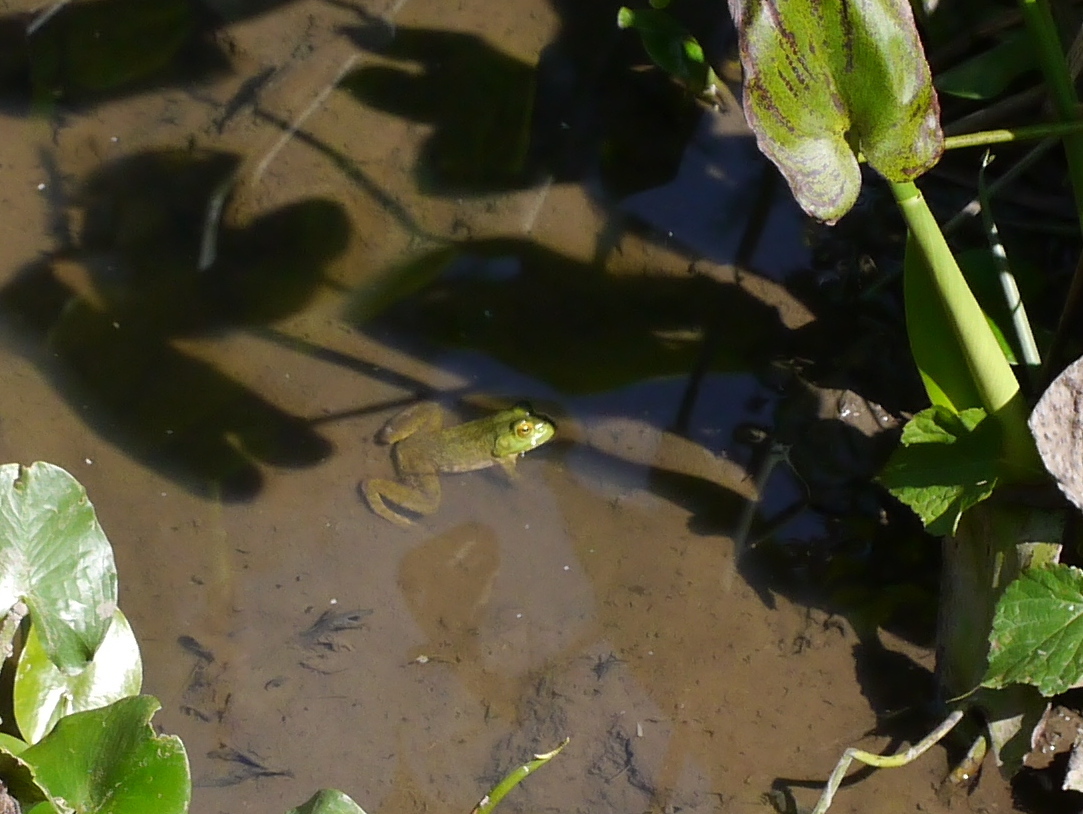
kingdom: Animalia
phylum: Chordata
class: Amphibia
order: Anura
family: Ranidae
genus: Lithobates
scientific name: Lithobates catesbeianus
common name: American bullfrog
